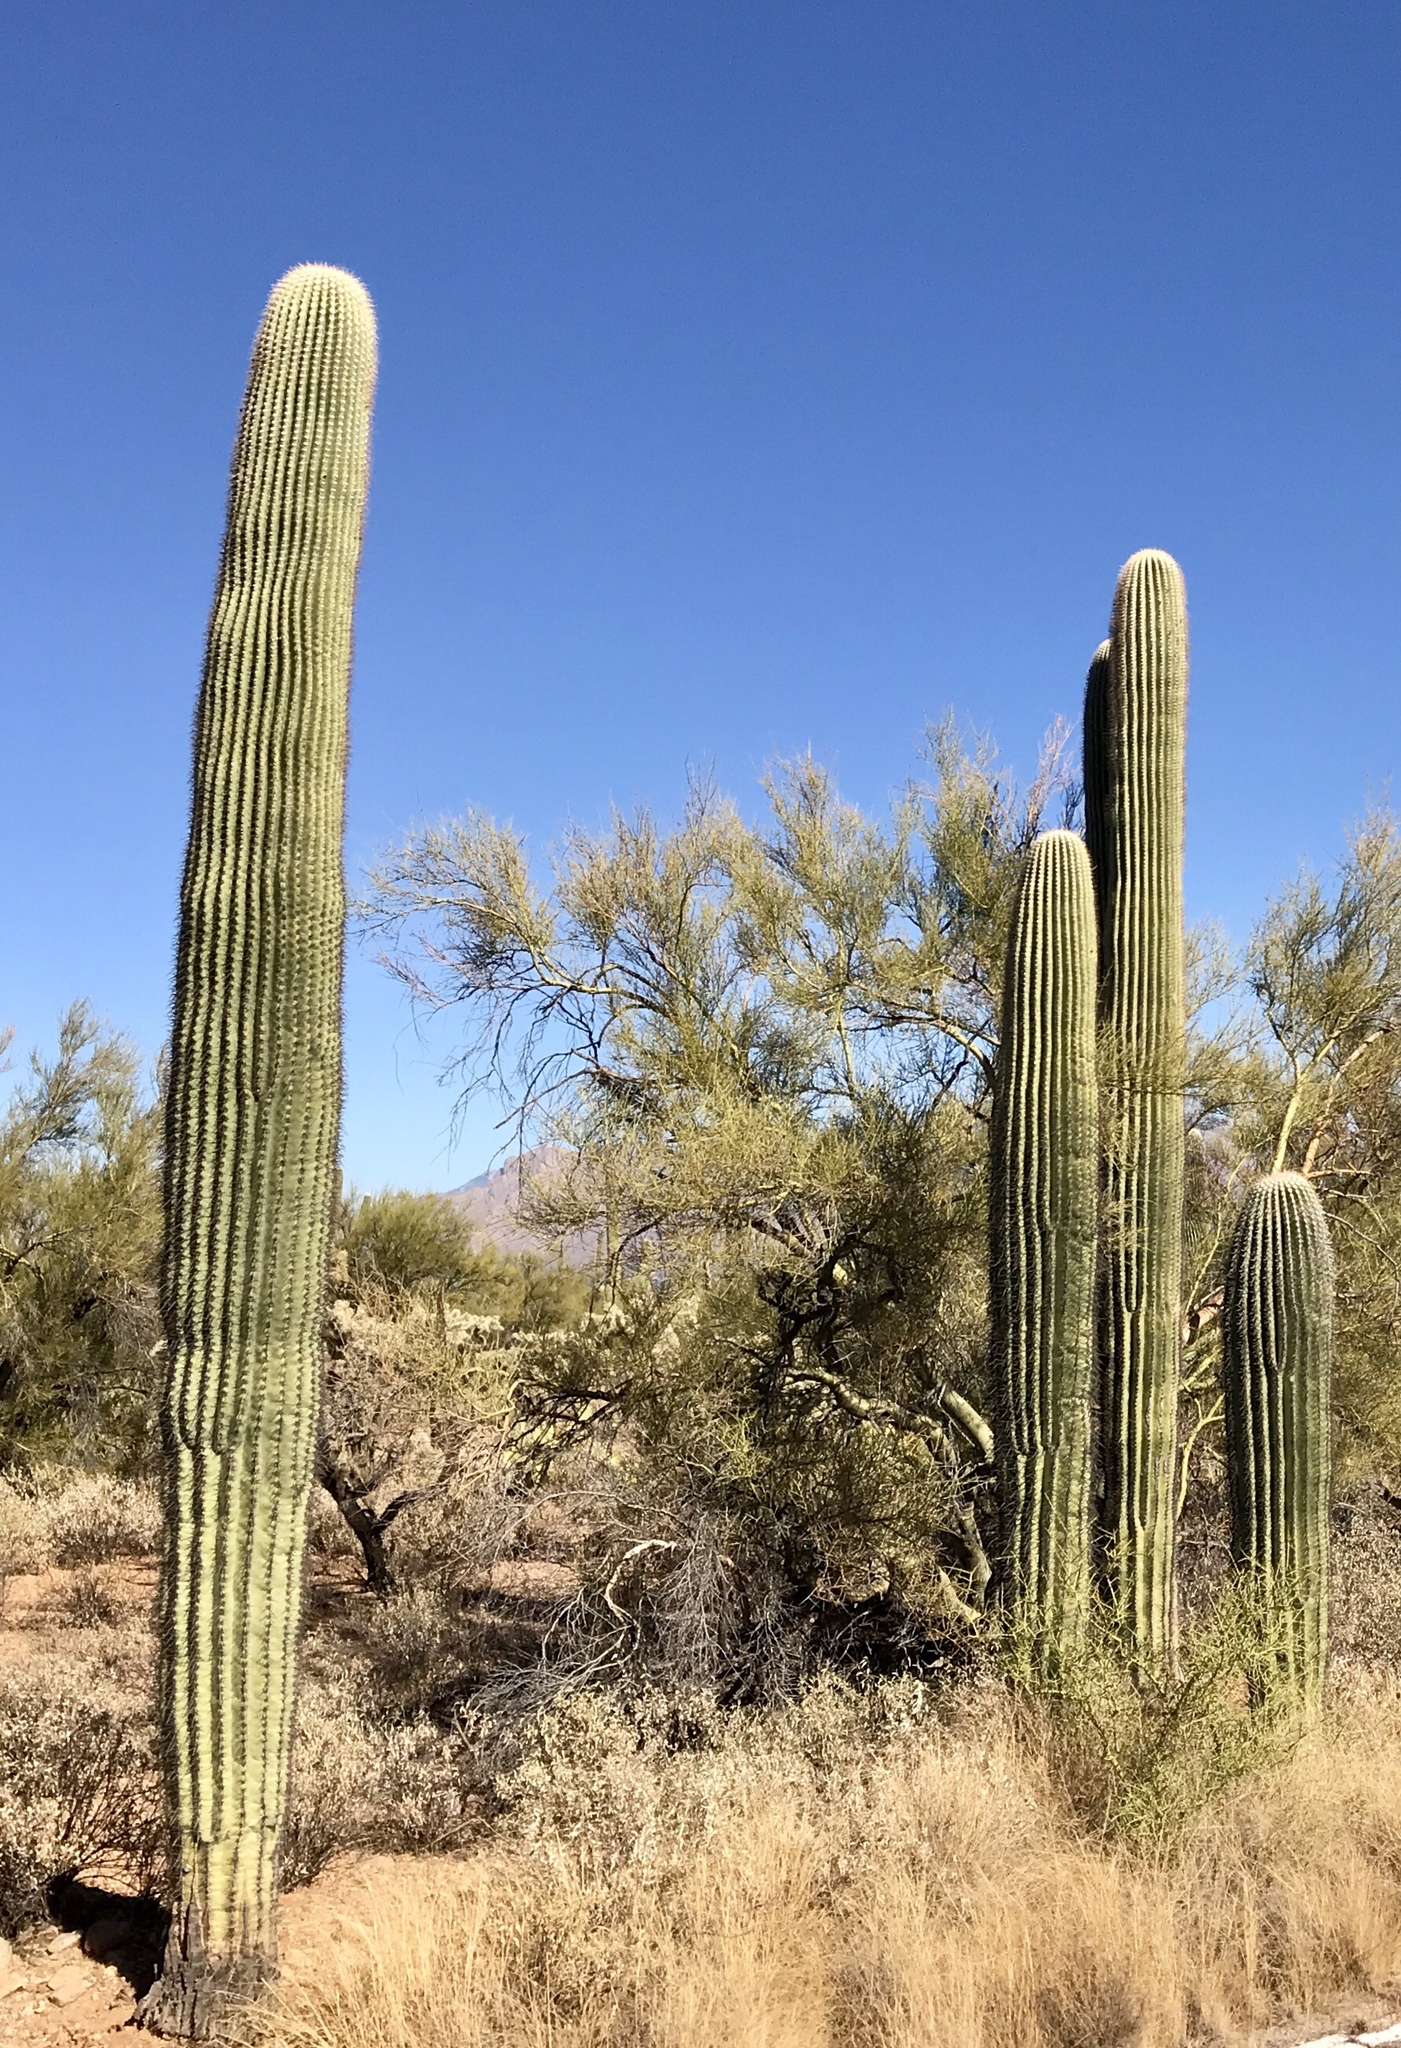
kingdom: Plantae
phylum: Tracheophyta
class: Magnoliopsida
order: Caryophyllales
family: Cactaceae
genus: Carnegiea
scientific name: Carnegiea gigantea
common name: Saguaro
